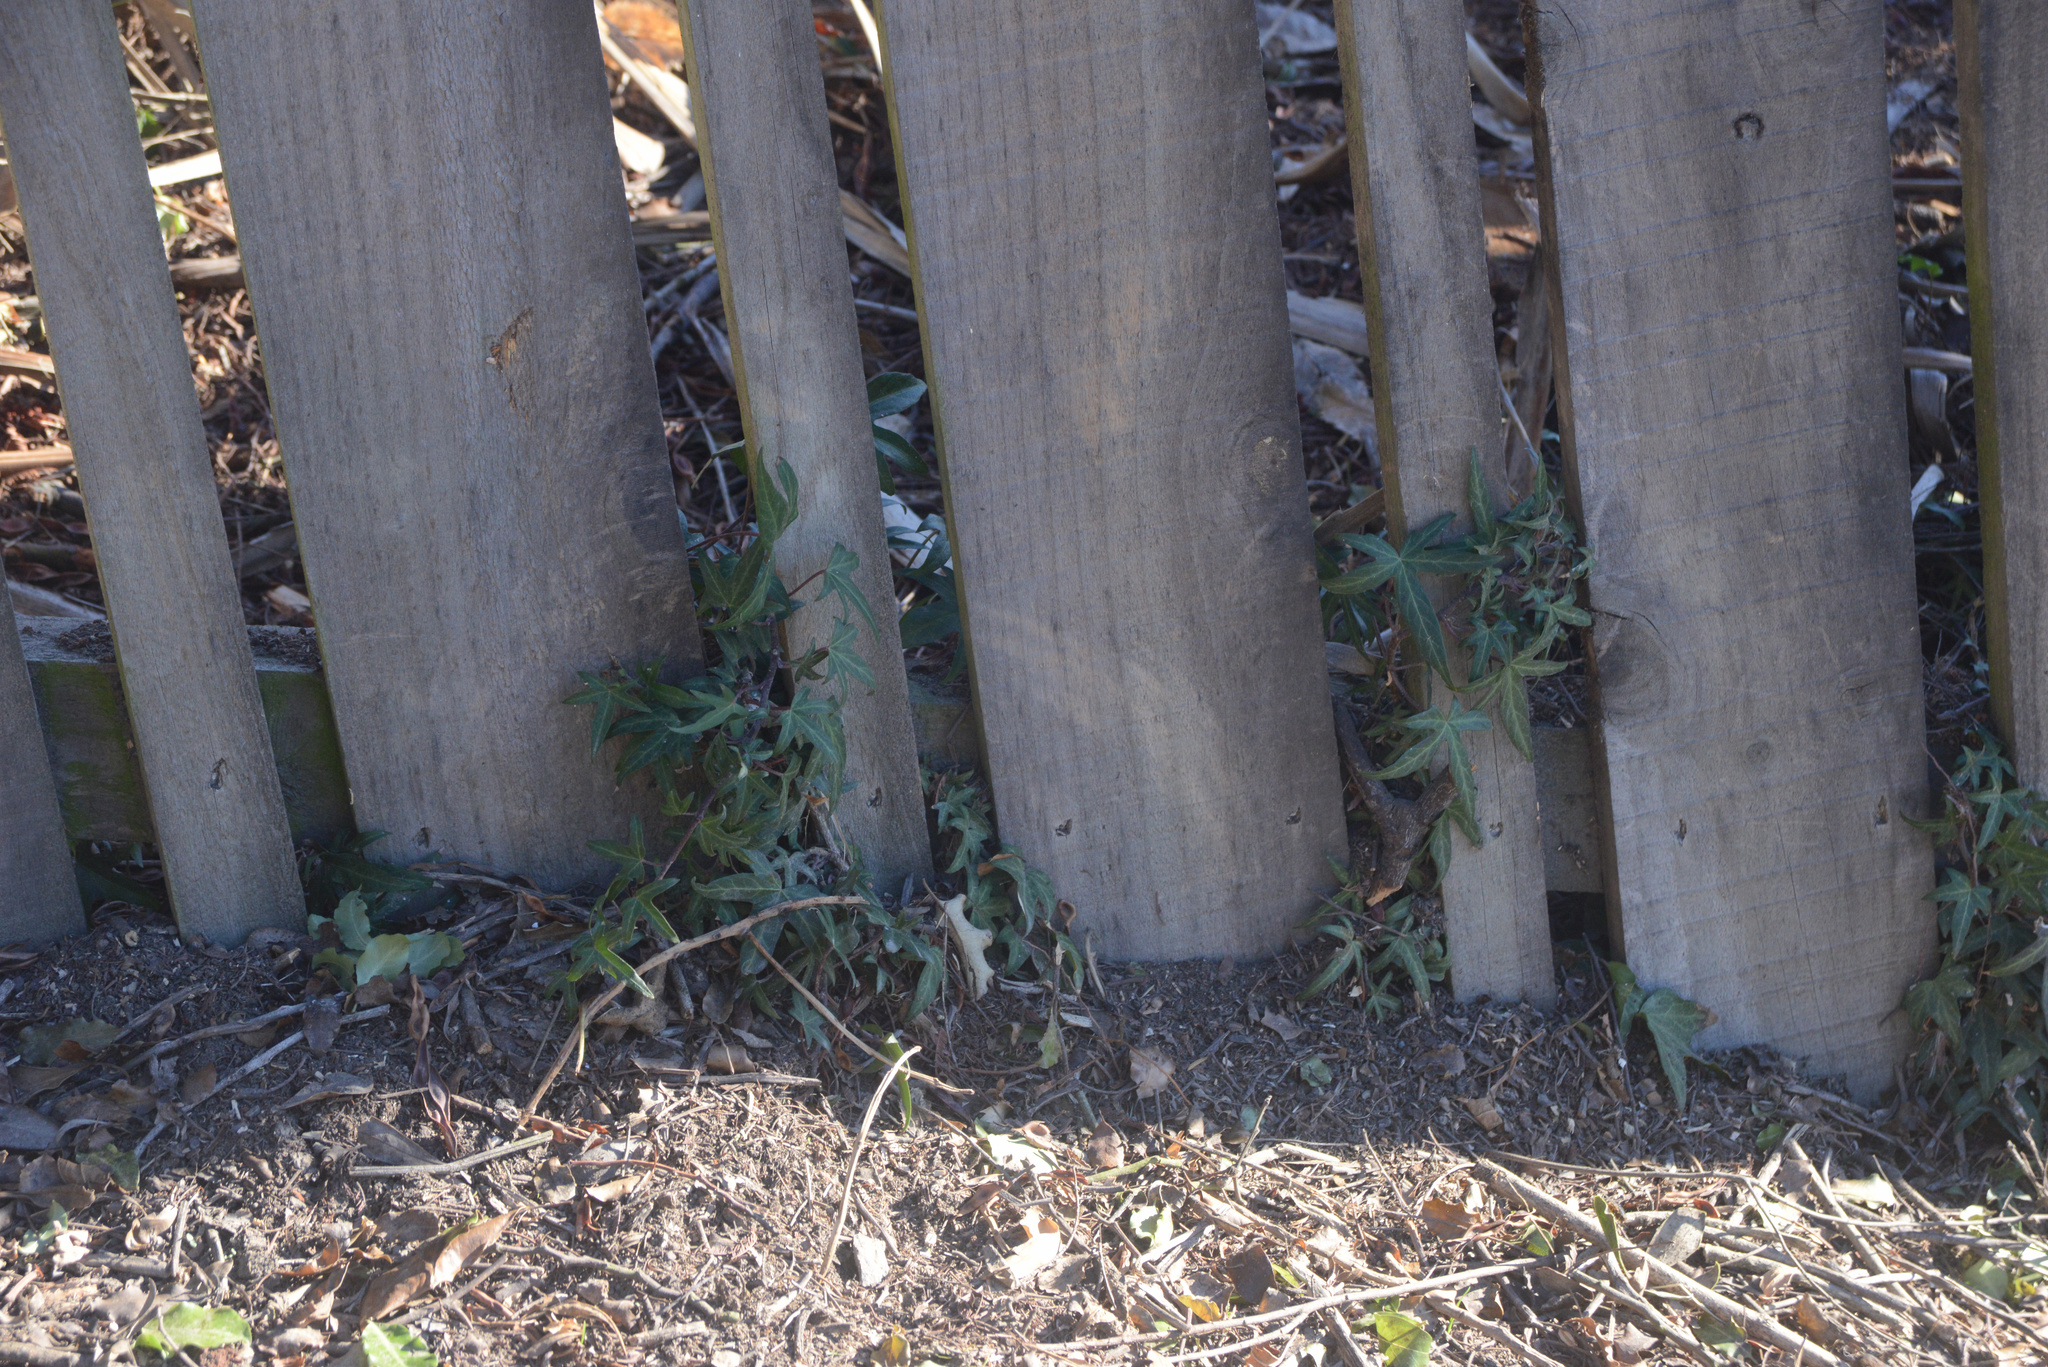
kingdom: Plantae
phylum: Tracheophyta
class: Magnoliopsida
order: Apiales
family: Araliaceae
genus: Hedera
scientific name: Hedera helix
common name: Ivy
